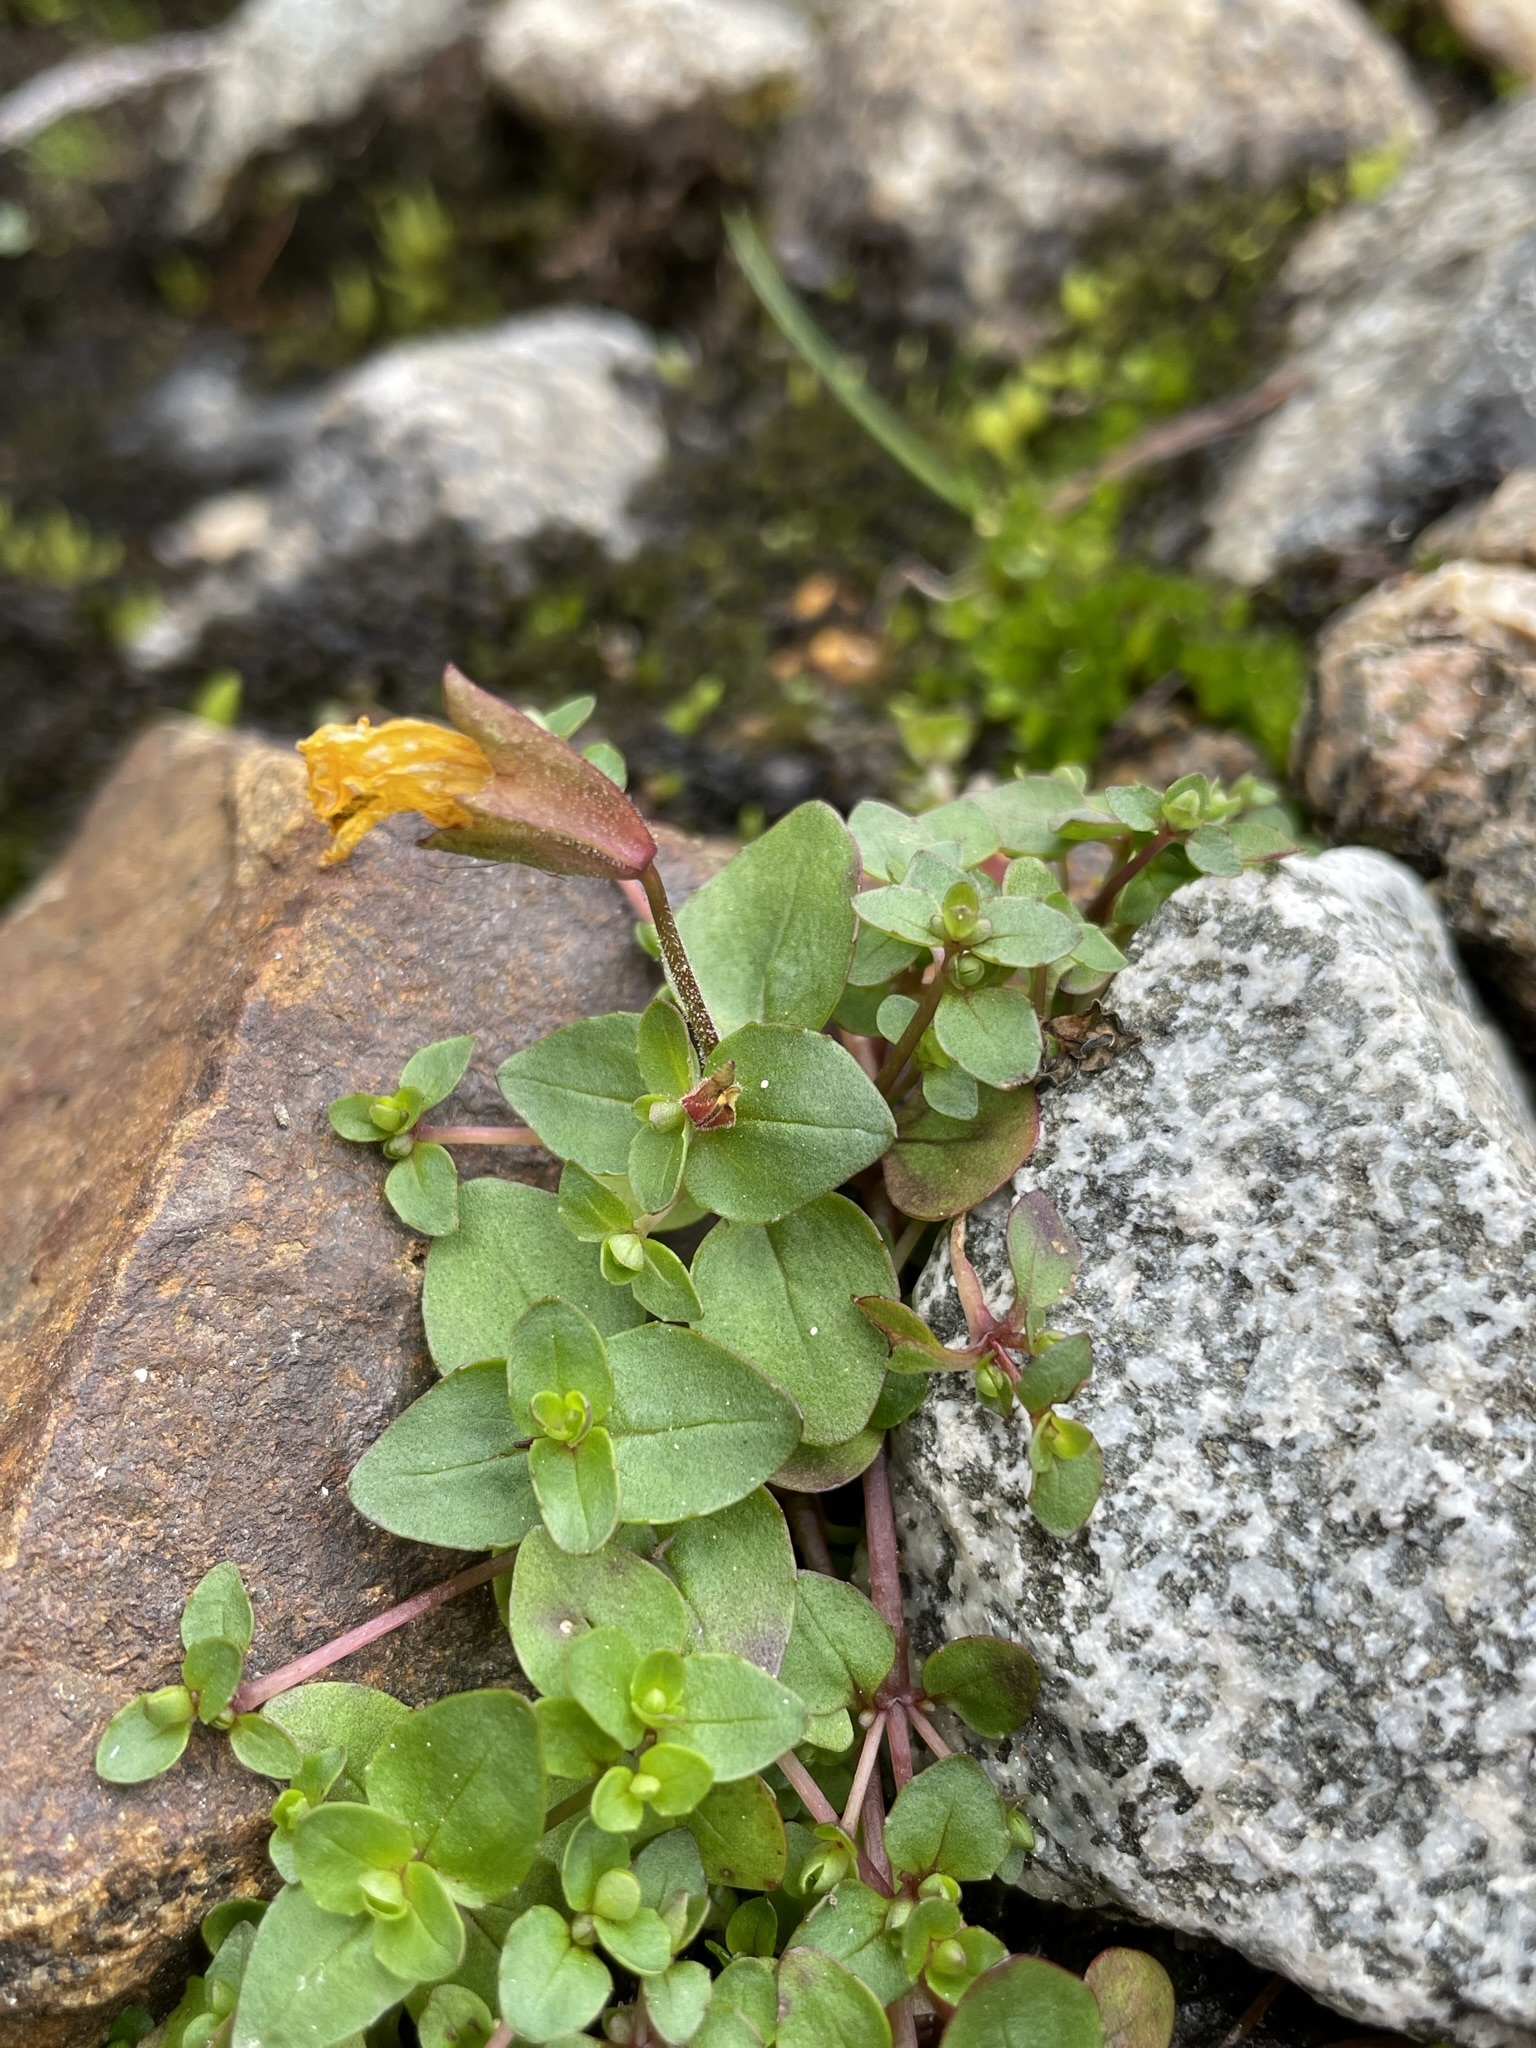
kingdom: Plantae
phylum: Tracheophyta
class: Magnoliopsida
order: Lamiales
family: Phrymaceae
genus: Erythranthe
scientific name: Erythranthe caespitosa
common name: Subalpine monkeyflower
